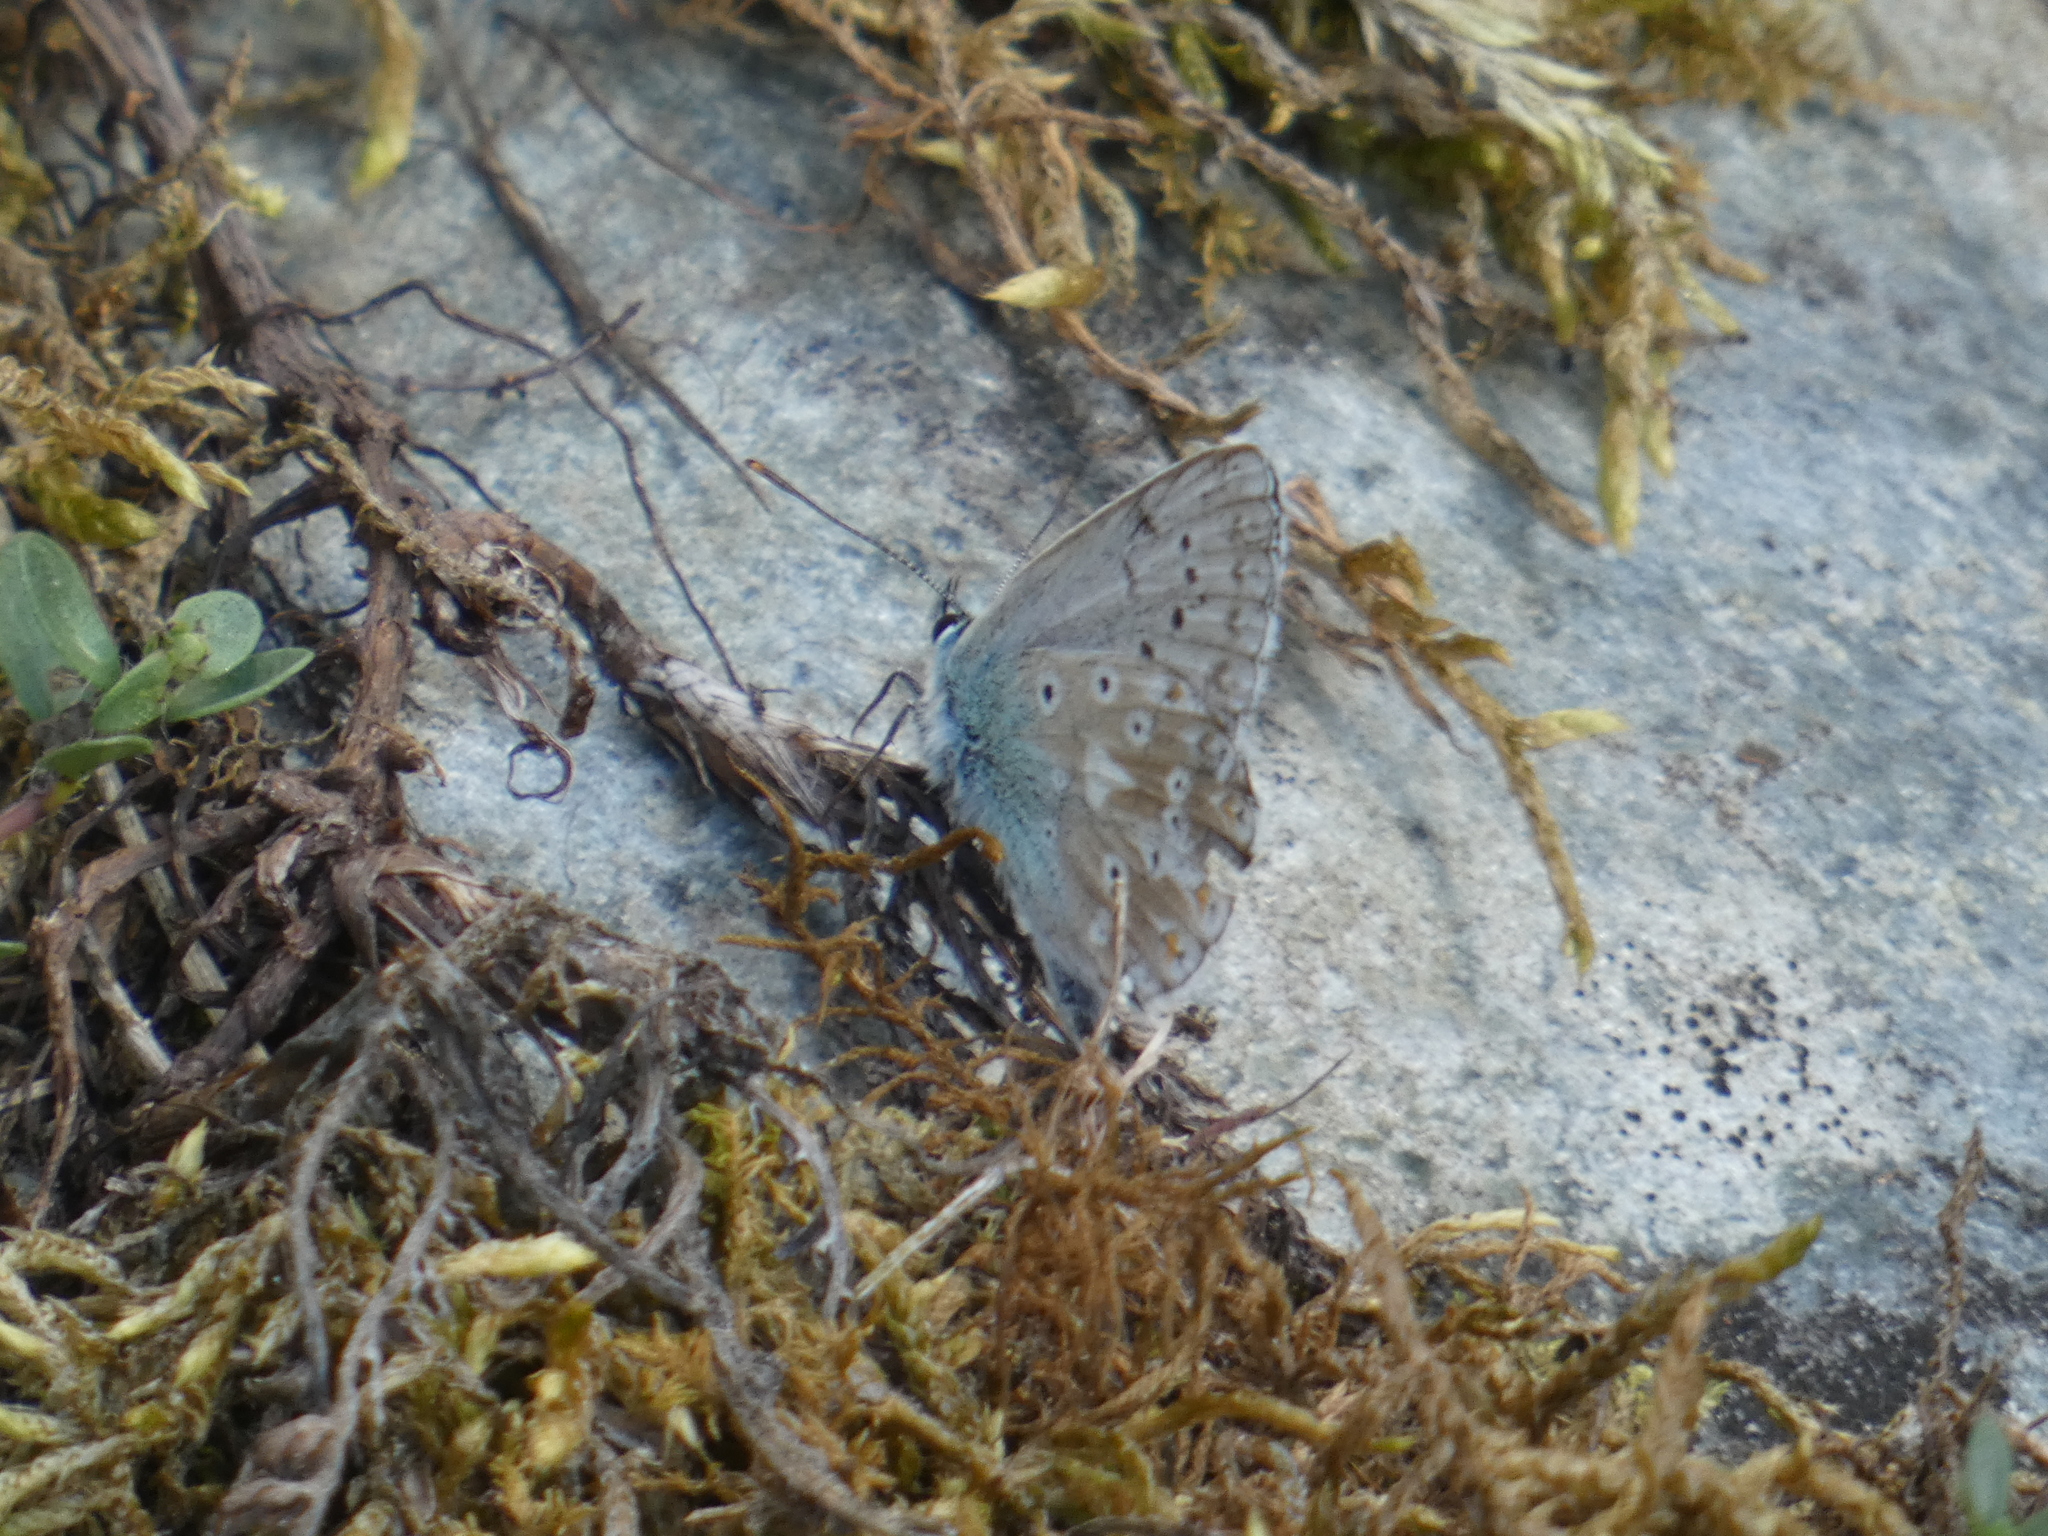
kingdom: Animalia
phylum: Arthropoda
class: Insecta
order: Lepidoptera
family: Lycaenidae
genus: Lysandra
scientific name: Lysandra coridon
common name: Chalkhill blue
